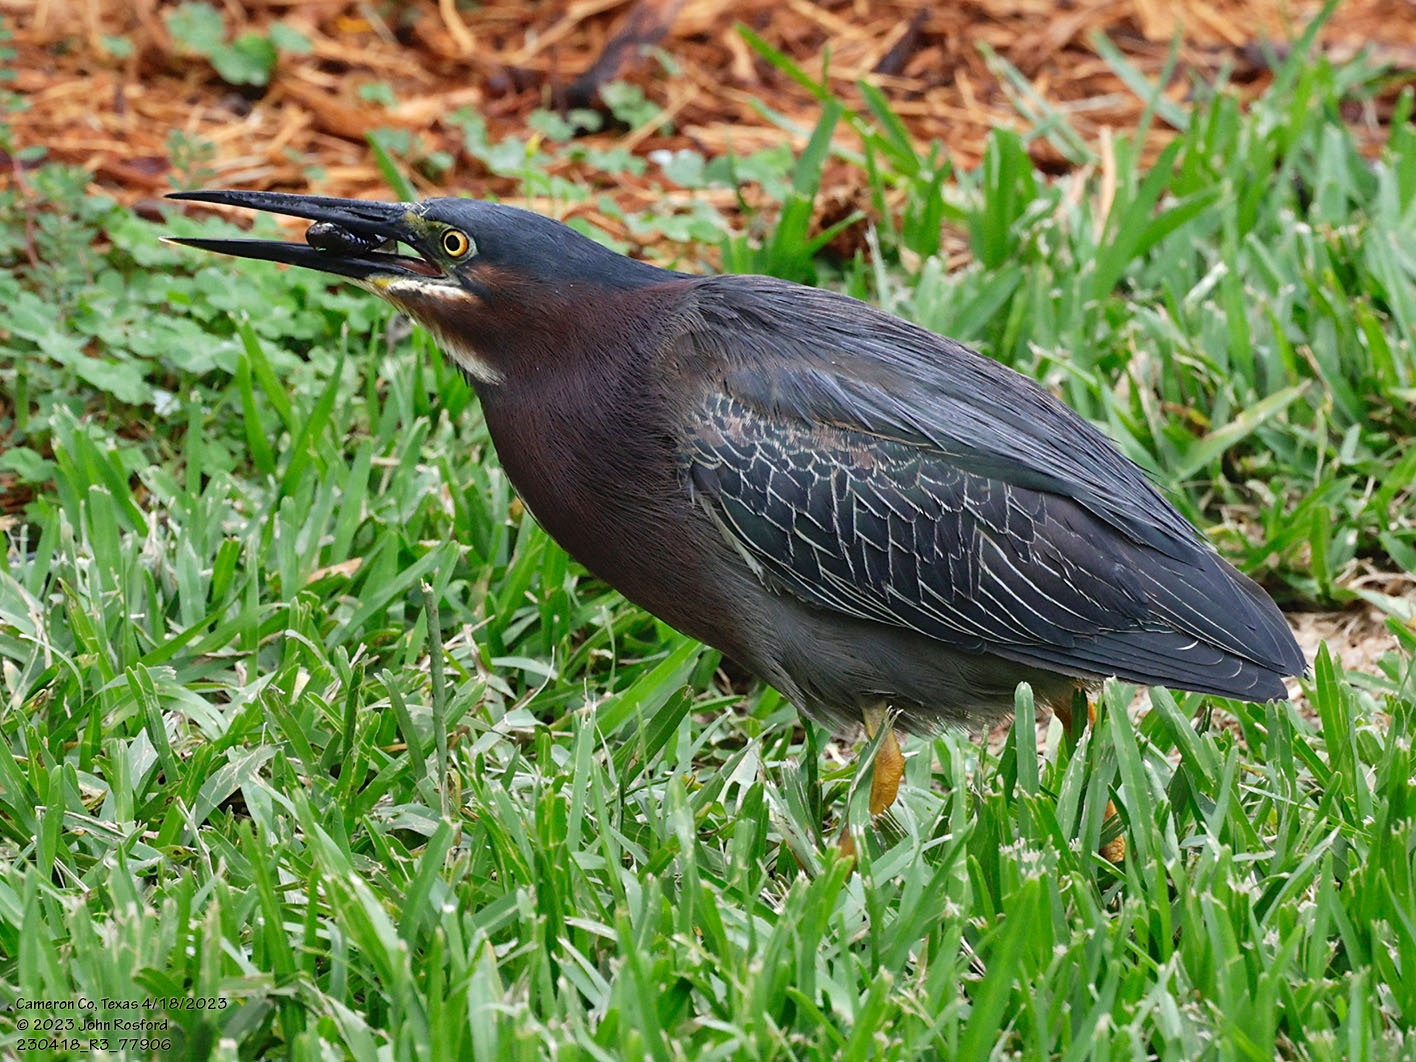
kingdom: Animalia
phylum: Chordata
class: Aves
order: Pelecaniformes
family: Ardeidae
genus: Butorides
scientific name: Butorides virescens
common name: Green heron
